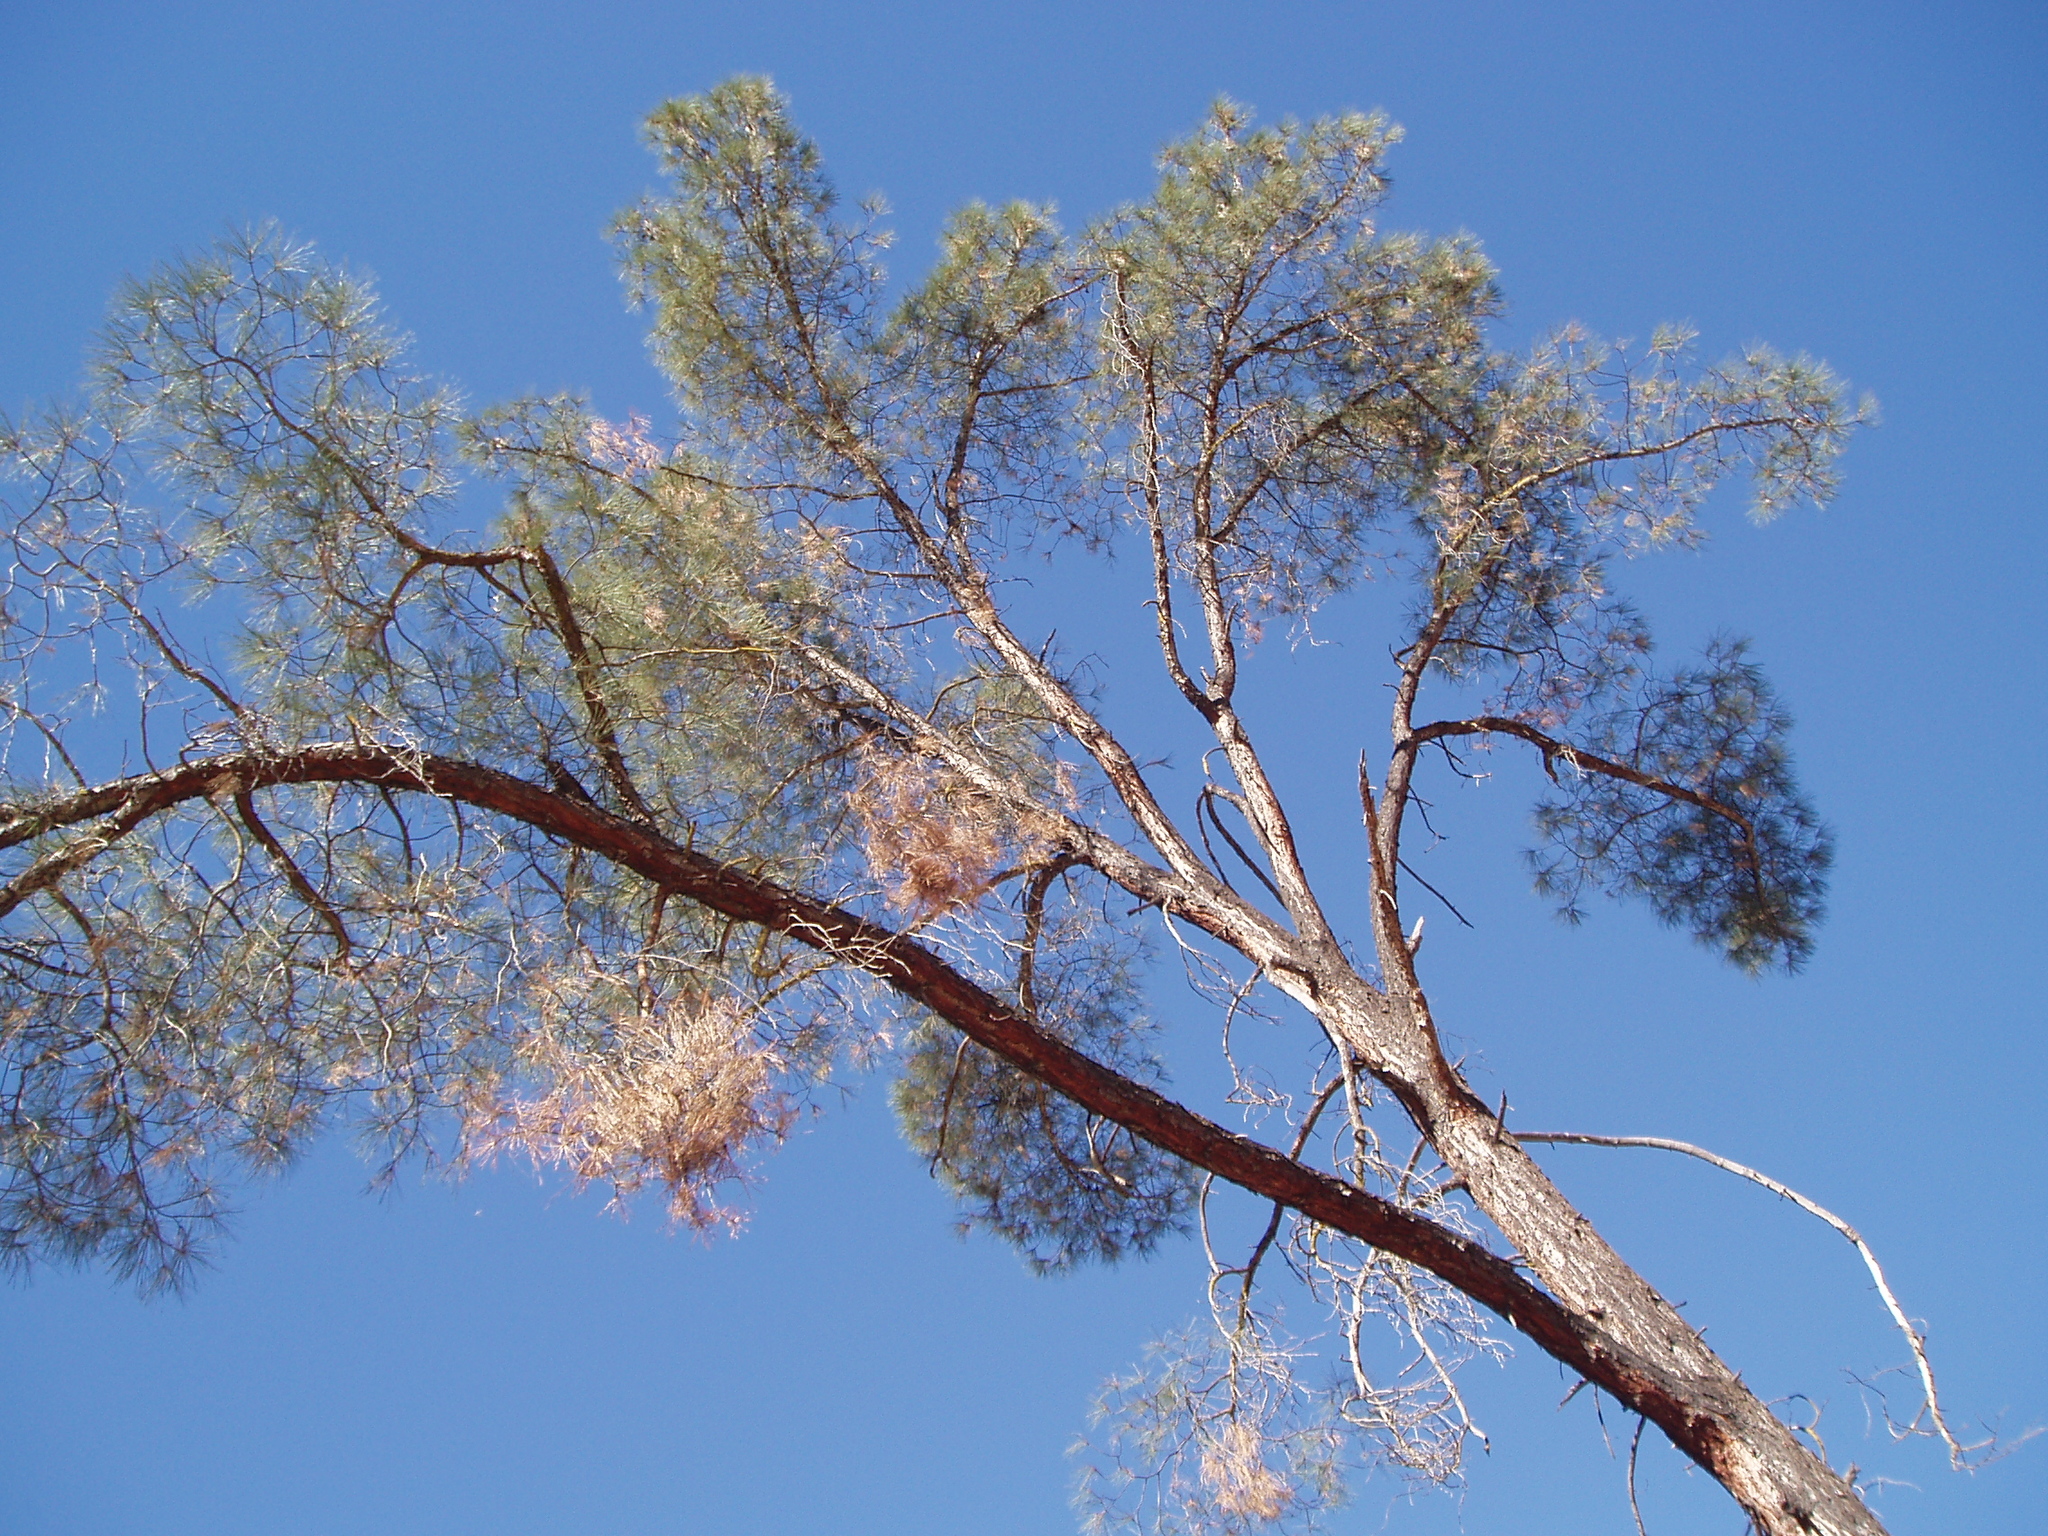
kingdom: Plantae
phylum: Tracheophyta
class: Pinopsida
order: Pinales
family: Pinaceae
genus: Pinus
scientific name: Pinus sabiniana
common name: Bull pine
